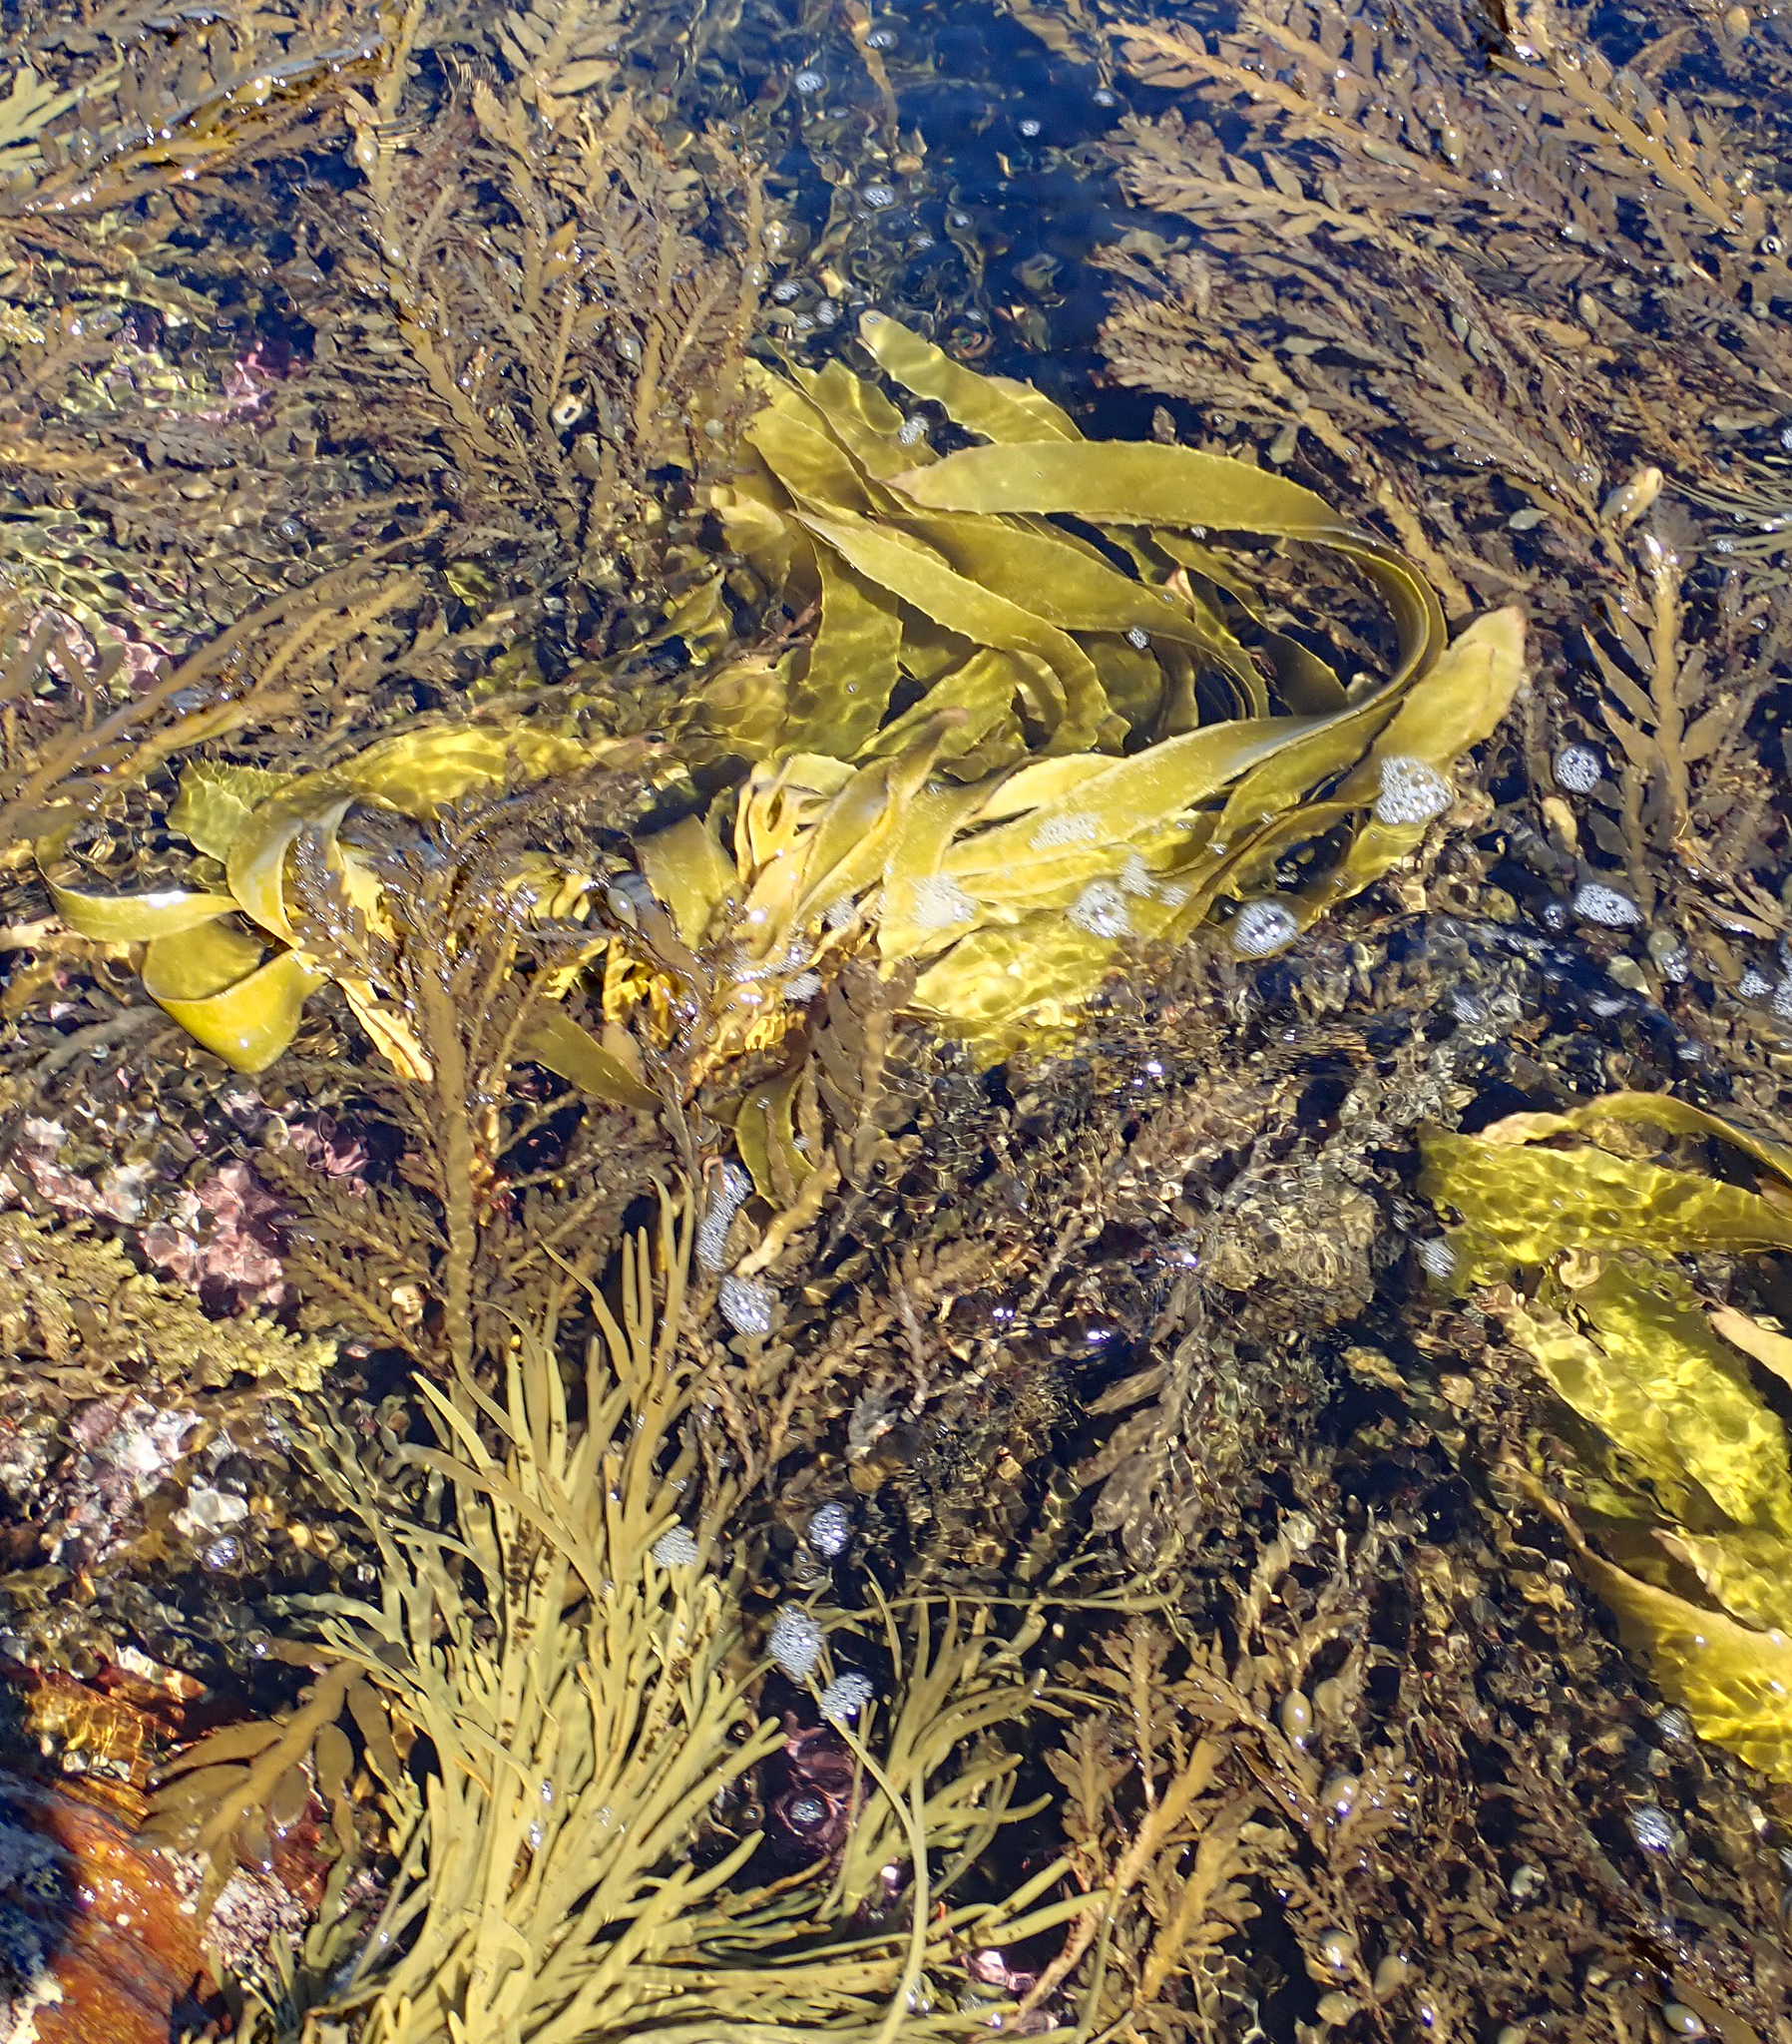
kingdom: Chromista
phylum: Ochrophyta
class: Phaeophyceae
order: Laminariales
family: Lessoniaceae
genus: Lessonia
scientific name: Lessonia tholiformis
